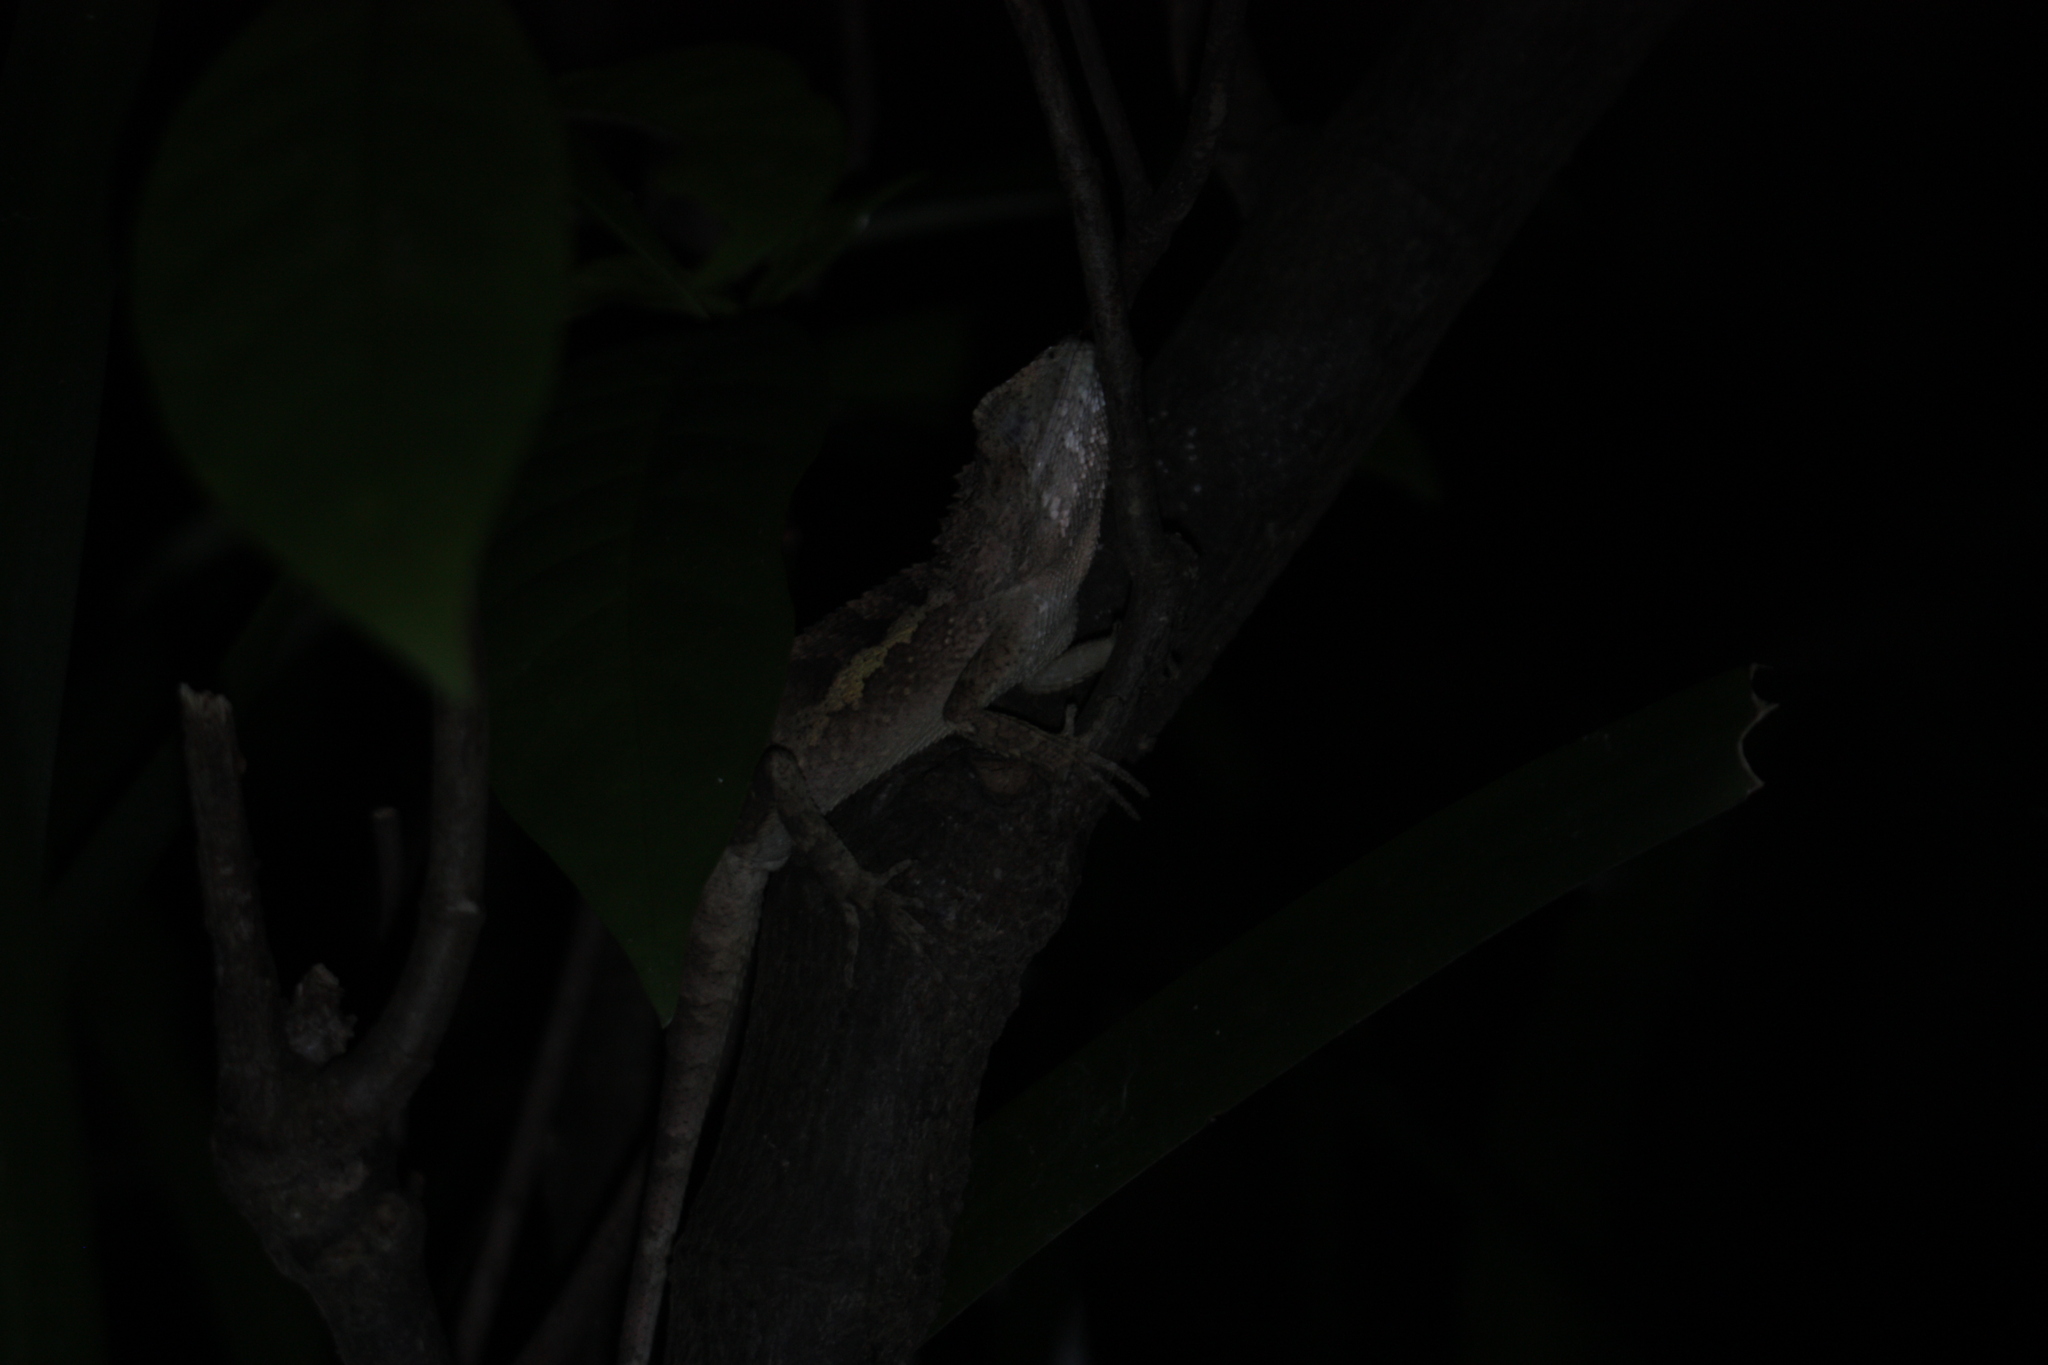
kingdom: Animalia
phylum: Chordata
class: Squamata
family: Agamidae
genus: Diploderma
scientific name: Diploderma swinhonis
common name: Taiwan japalure
